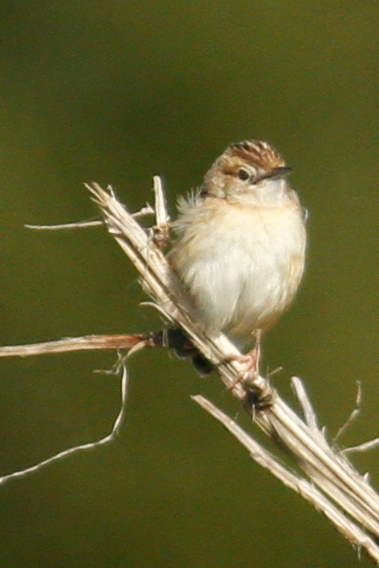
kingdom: Animalia
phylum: Chordata
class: Aves
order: Passeriformes
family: Cisticolidae
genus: Cisticola
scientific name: Cisticola juncidis
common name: Zitting cisticola
